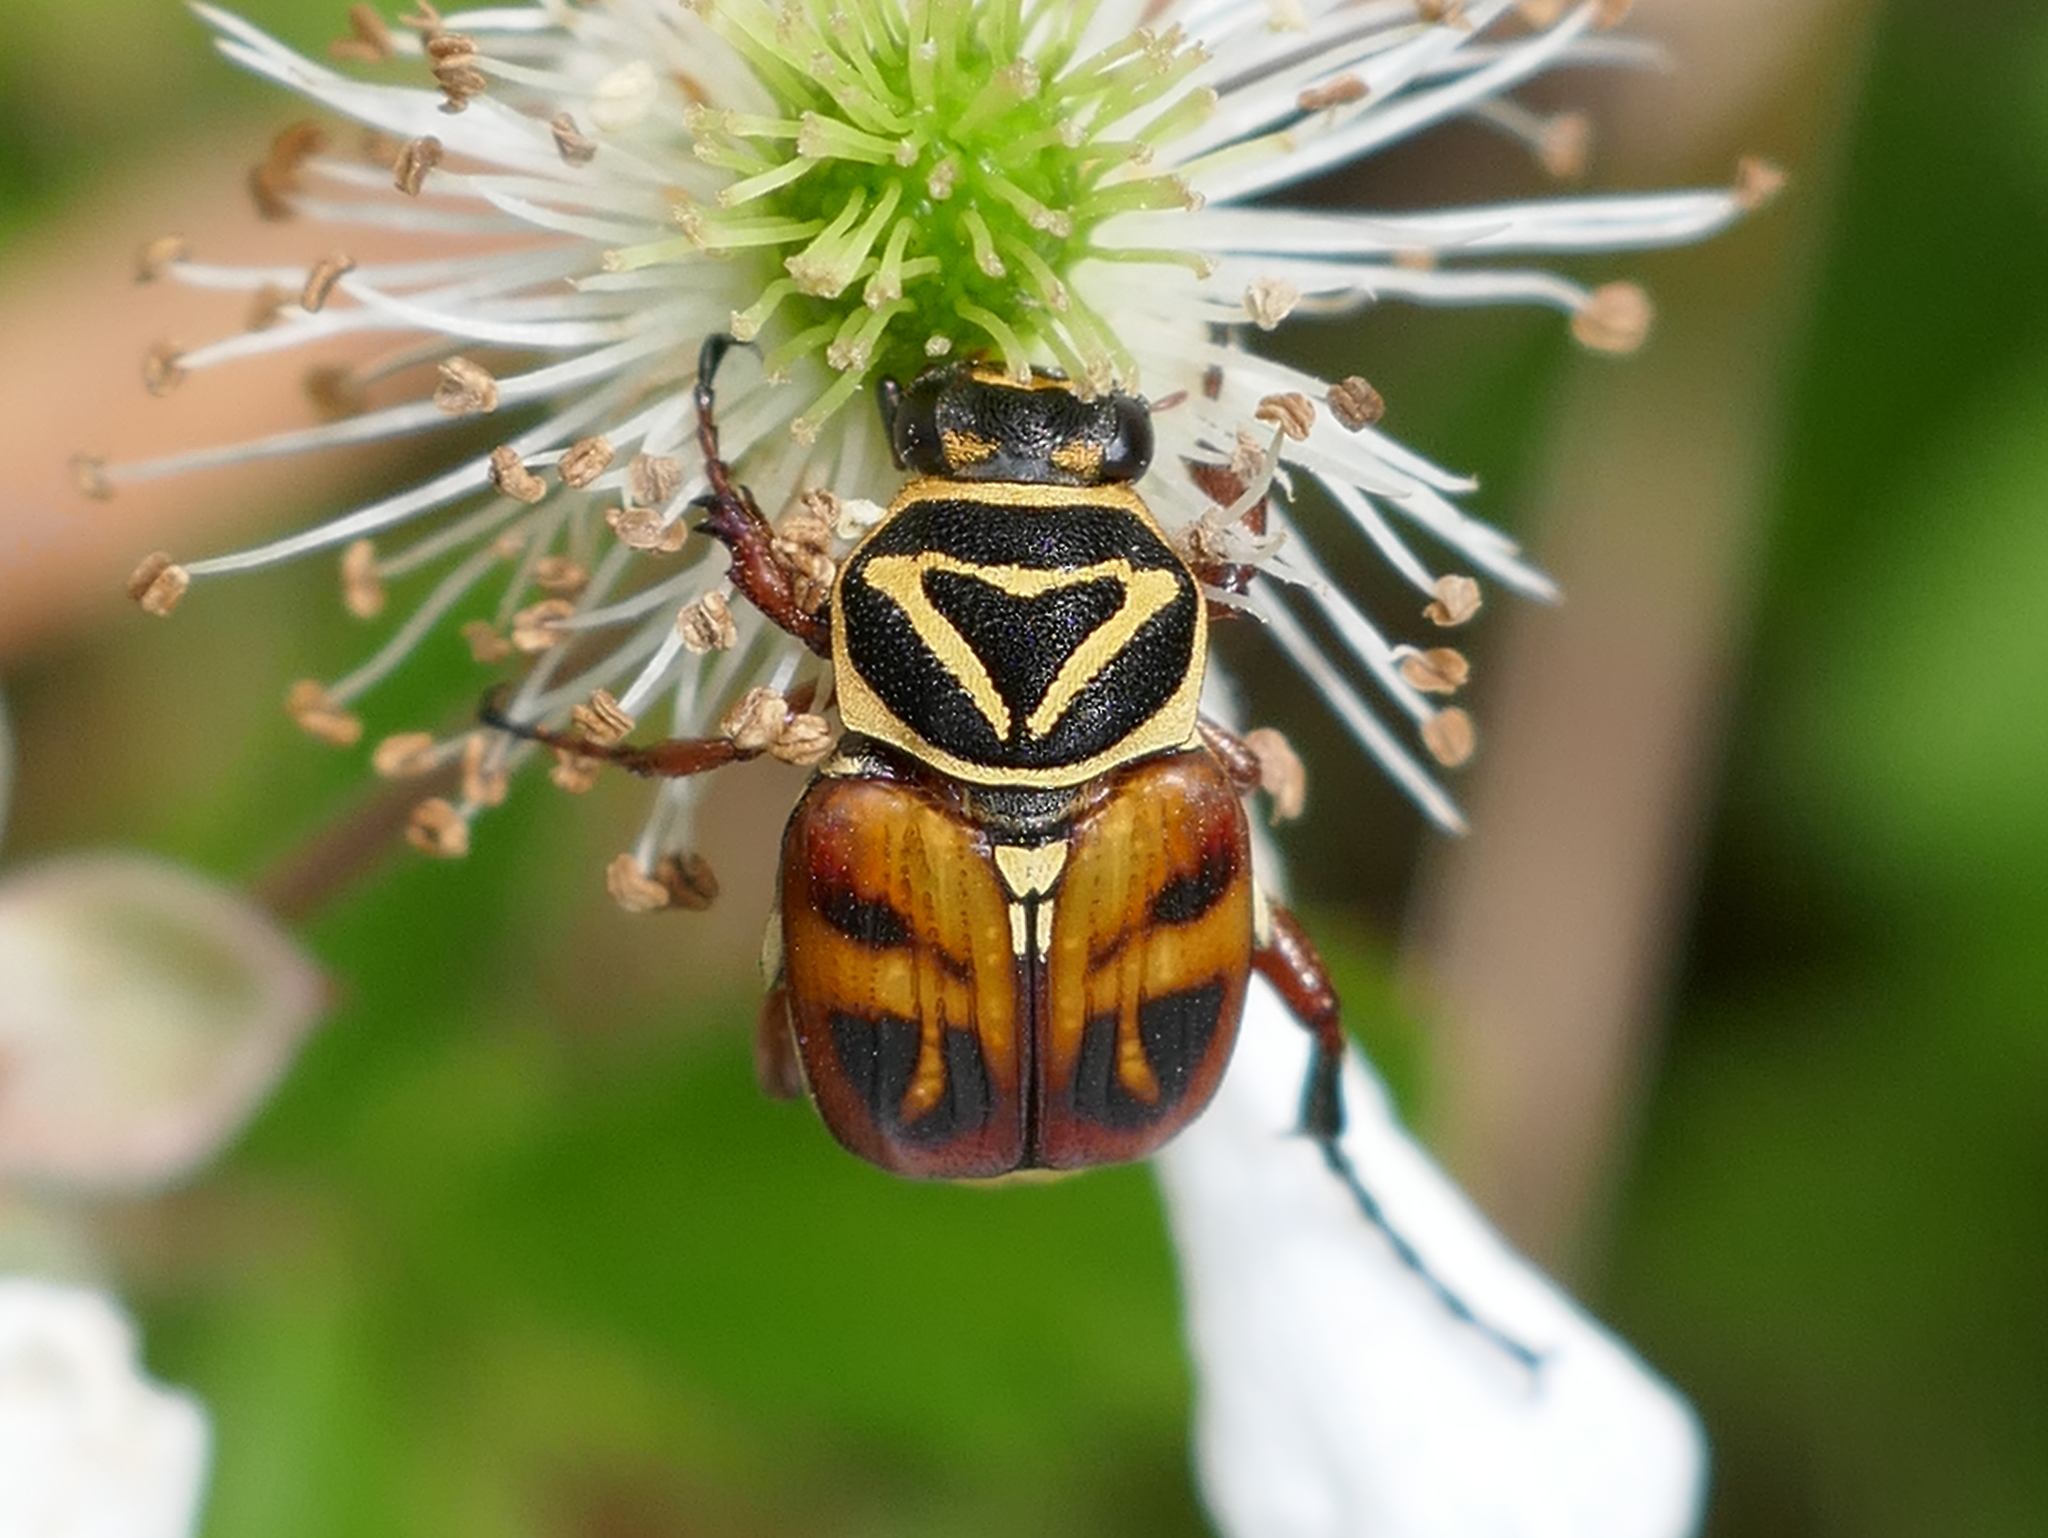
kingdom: Animalia
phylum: Arthropoda
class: Insecta
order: Coleoptera
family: Scarabaeidae
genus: Trigonopeltastes
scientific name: Trigonopeltastes delta
